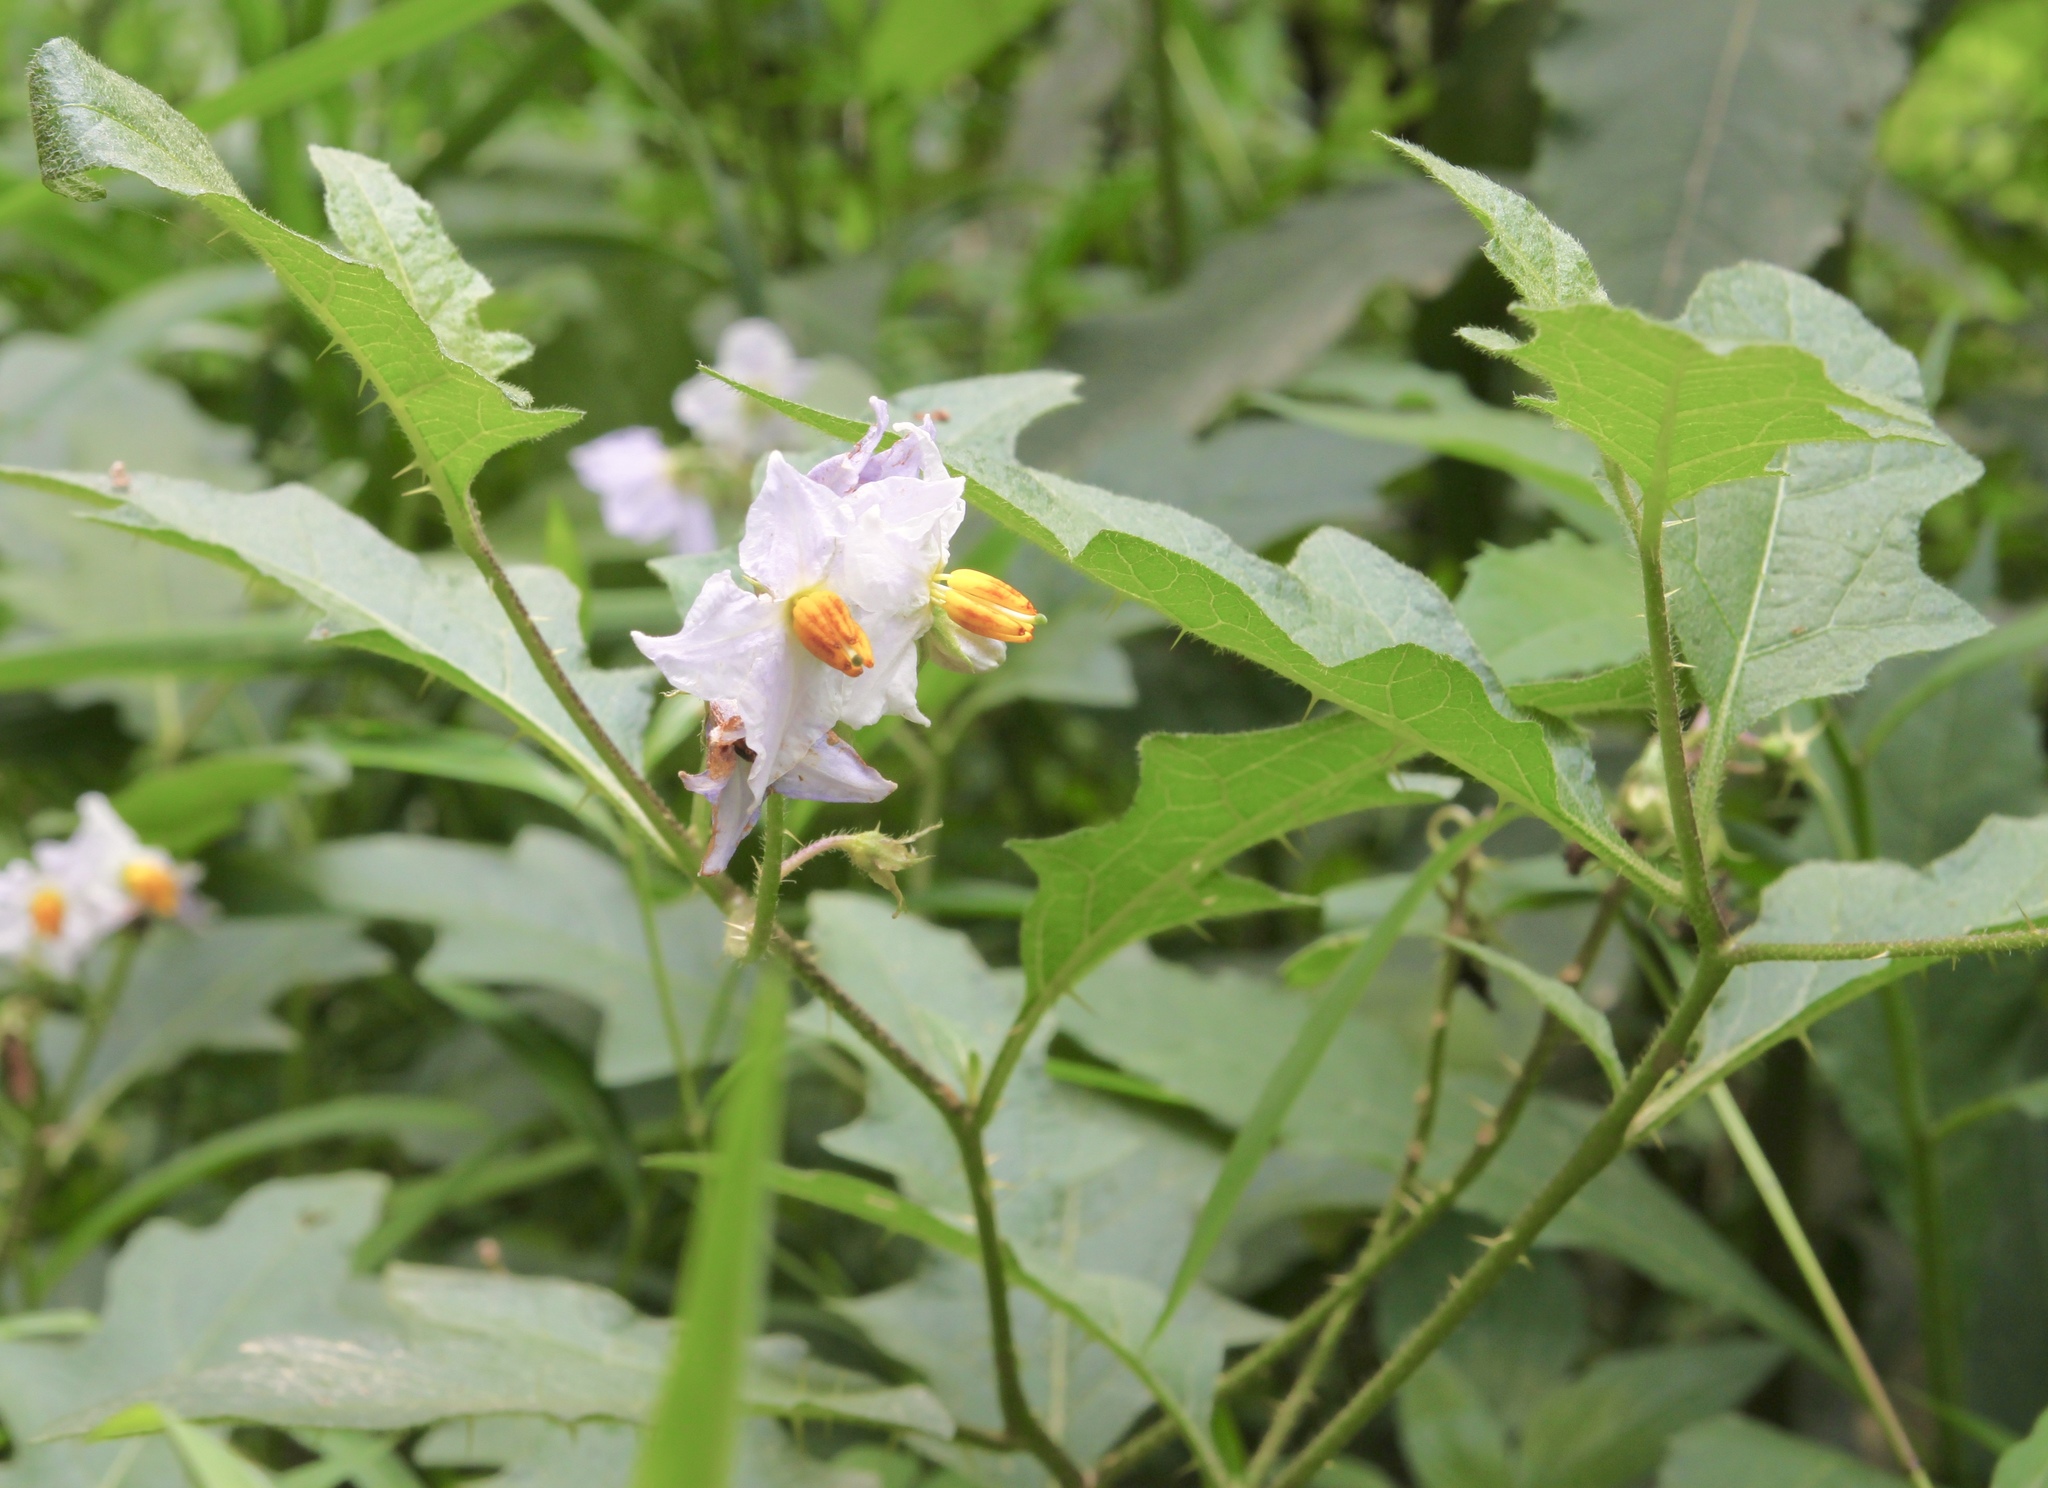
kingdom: Plantae
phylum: Tracheophyta
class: Magnoliopsida
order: Solanales
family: Solanaceae
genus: Solanum
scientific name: Solanum carolinense
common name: Horse-nettle
